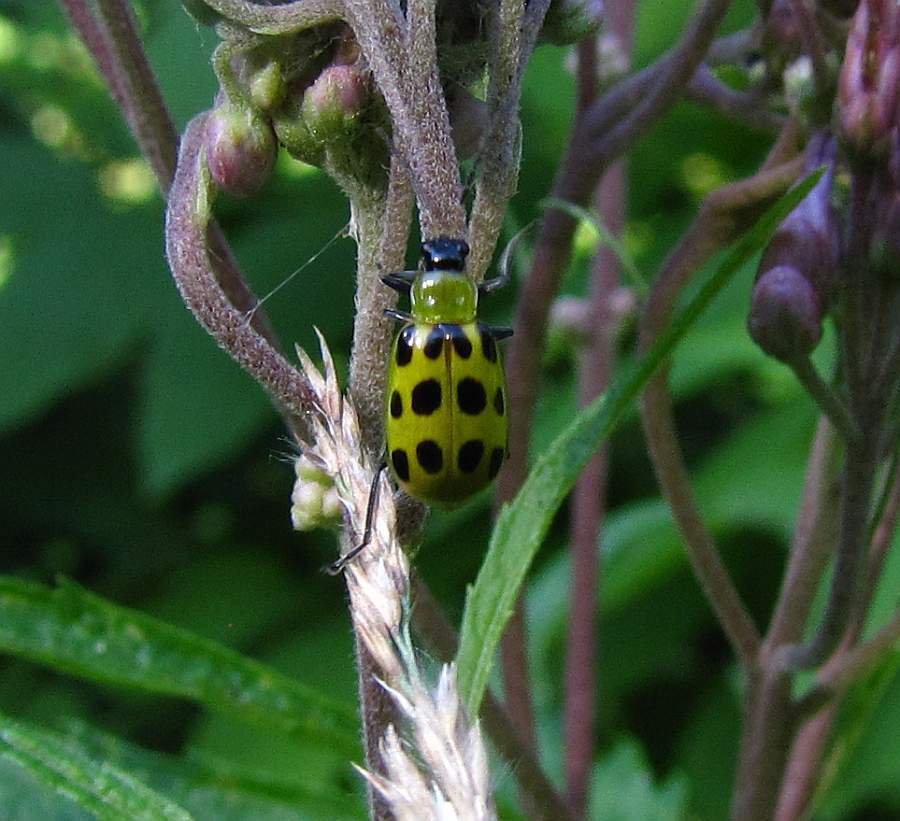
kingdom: Animalia
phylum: Arthropoda
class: Insecta
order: Coleoptera
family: Chrysomelidae
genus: Diabrotica
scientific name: Diabrotica undecimpunctata
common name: Spotted cucumber beetle
